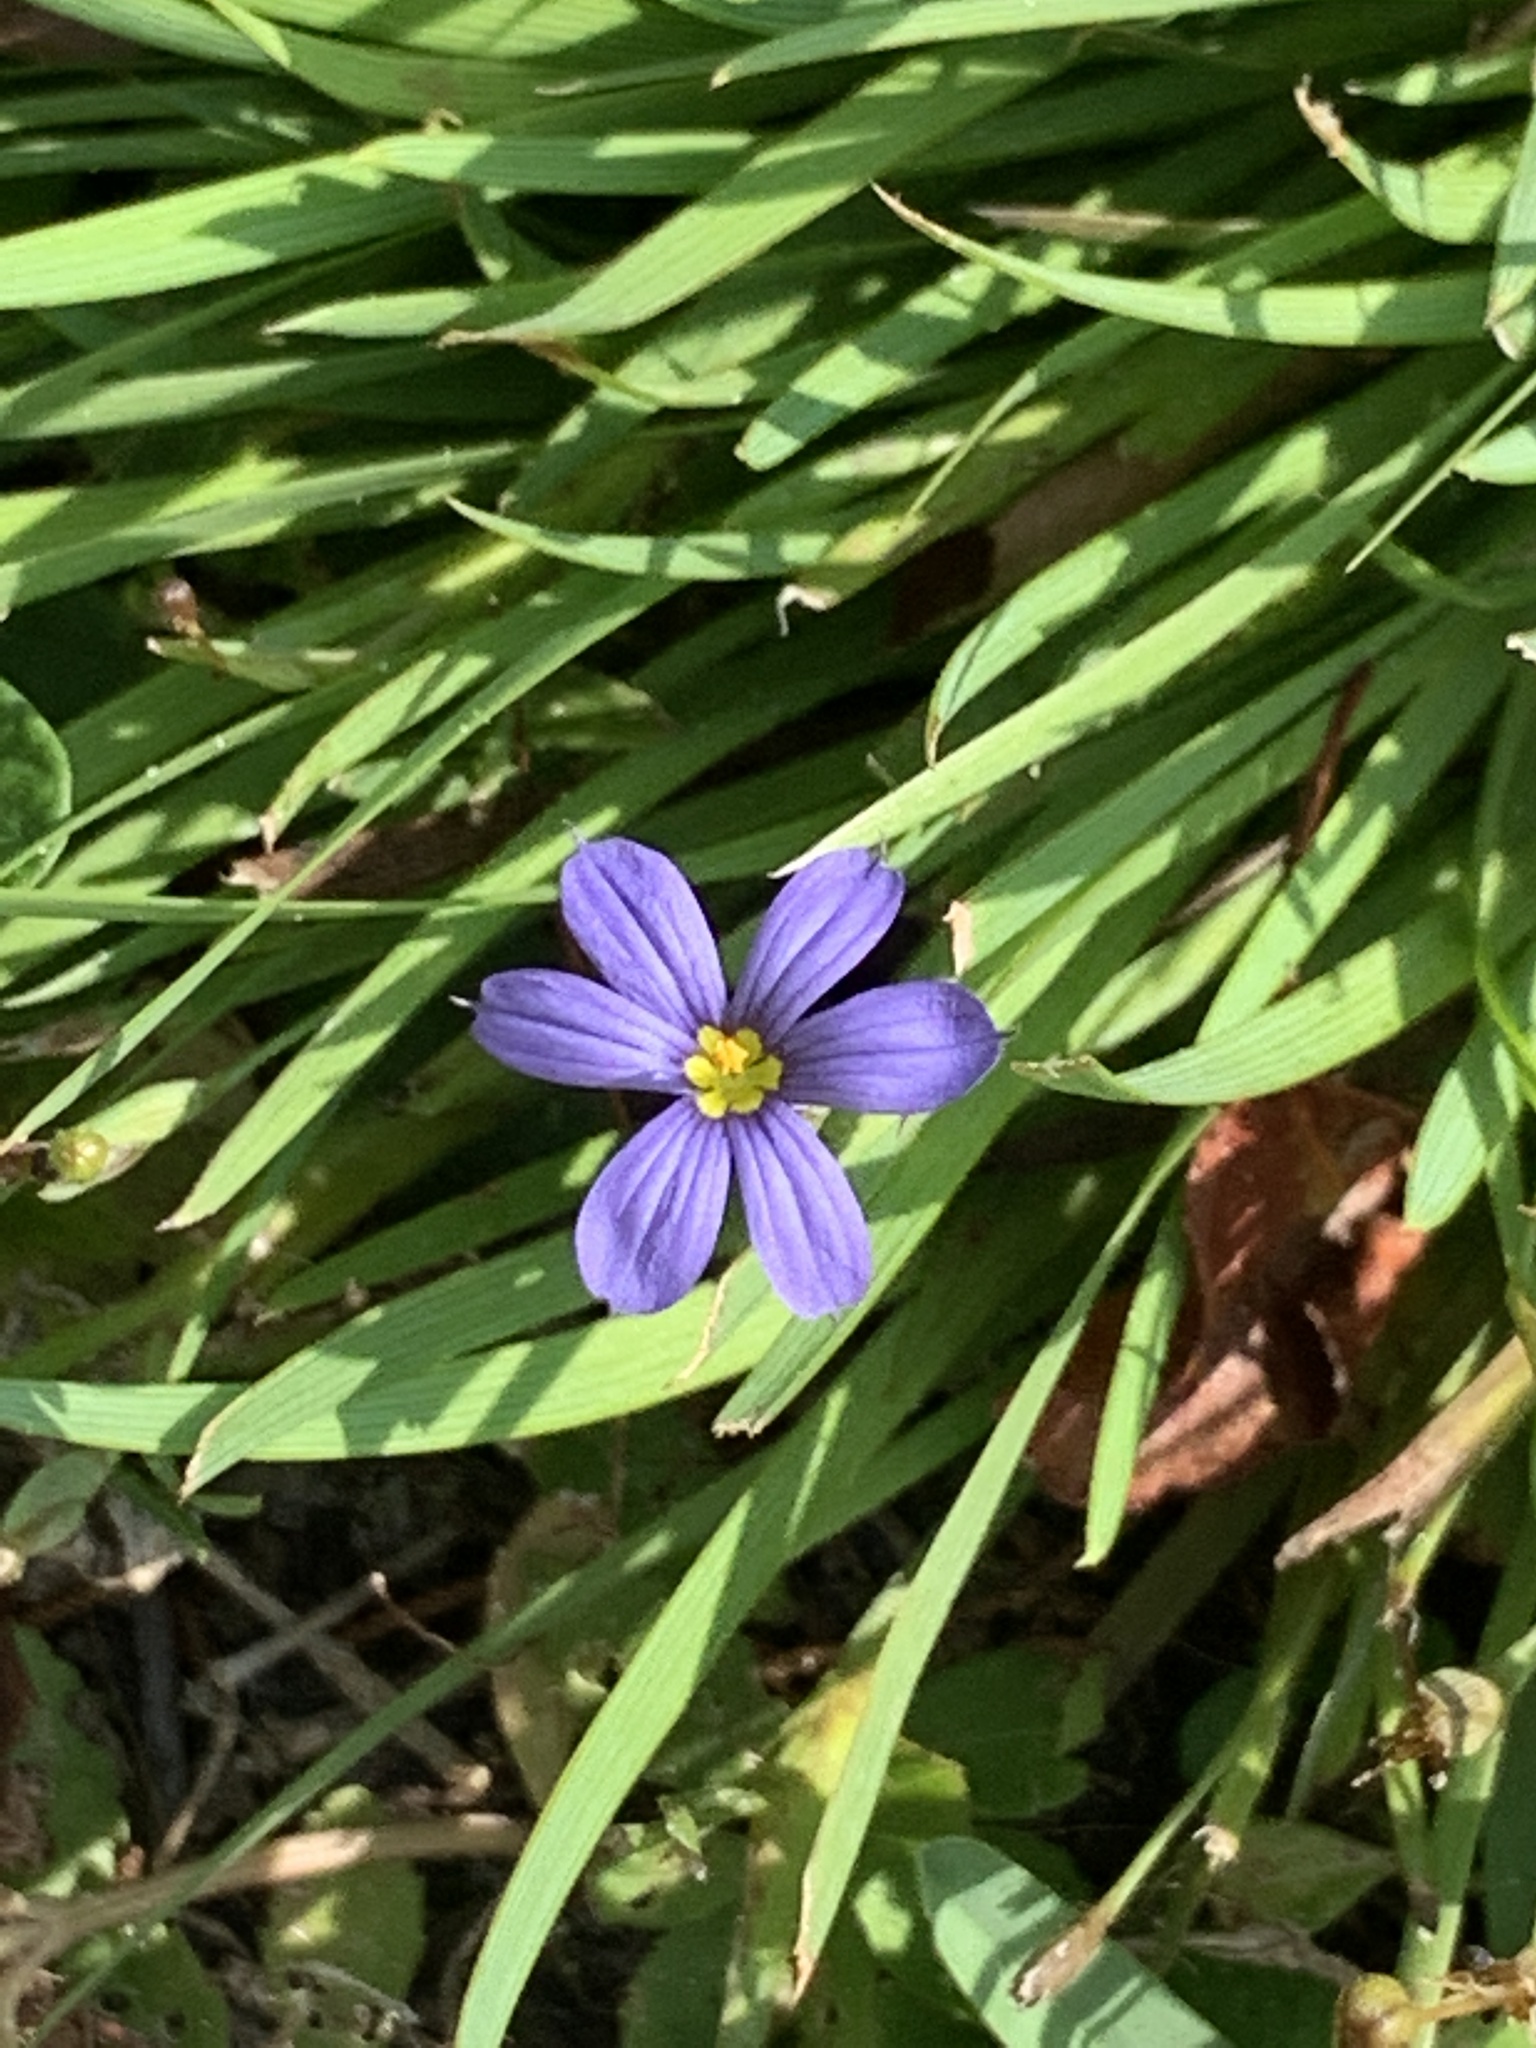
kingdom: Plantae
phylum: Tracheophyta
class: Liliopsida
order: Asparagales
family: Iridaceae
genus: Sisyrinchium
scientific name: Sisyrinchium angustifolium
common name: Narrow-leaf blue-eyed-grass
